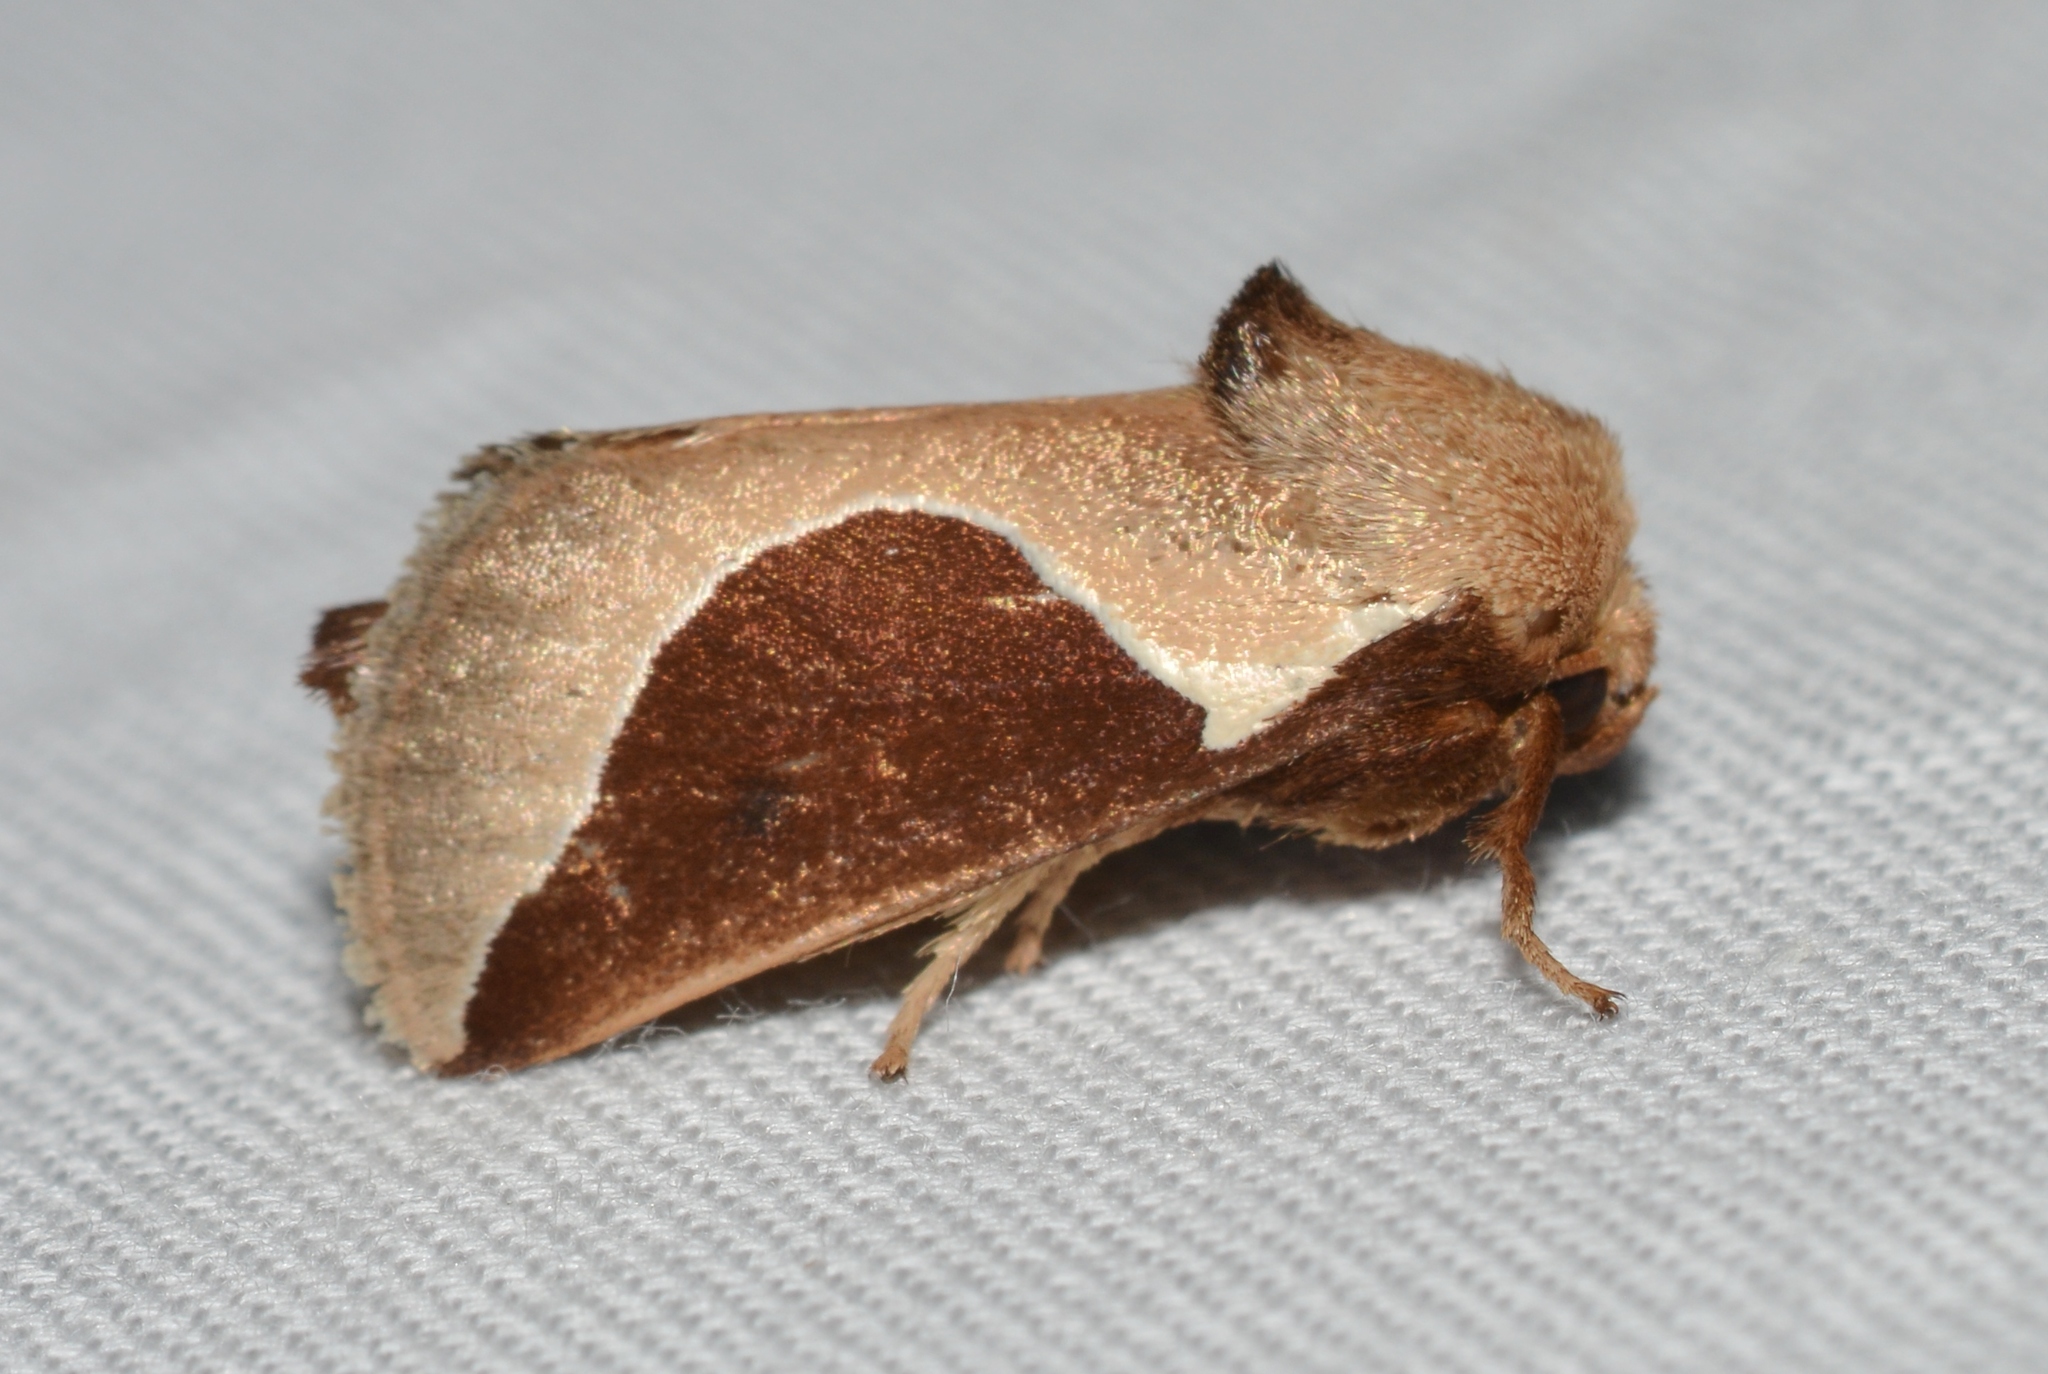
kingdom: Animalia
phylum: Arthropoda
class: Insecta
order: Lepidoptera
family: Limacodidae
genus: Prolimacodes
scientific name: Prolimacodes badia
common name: Skiff moth
